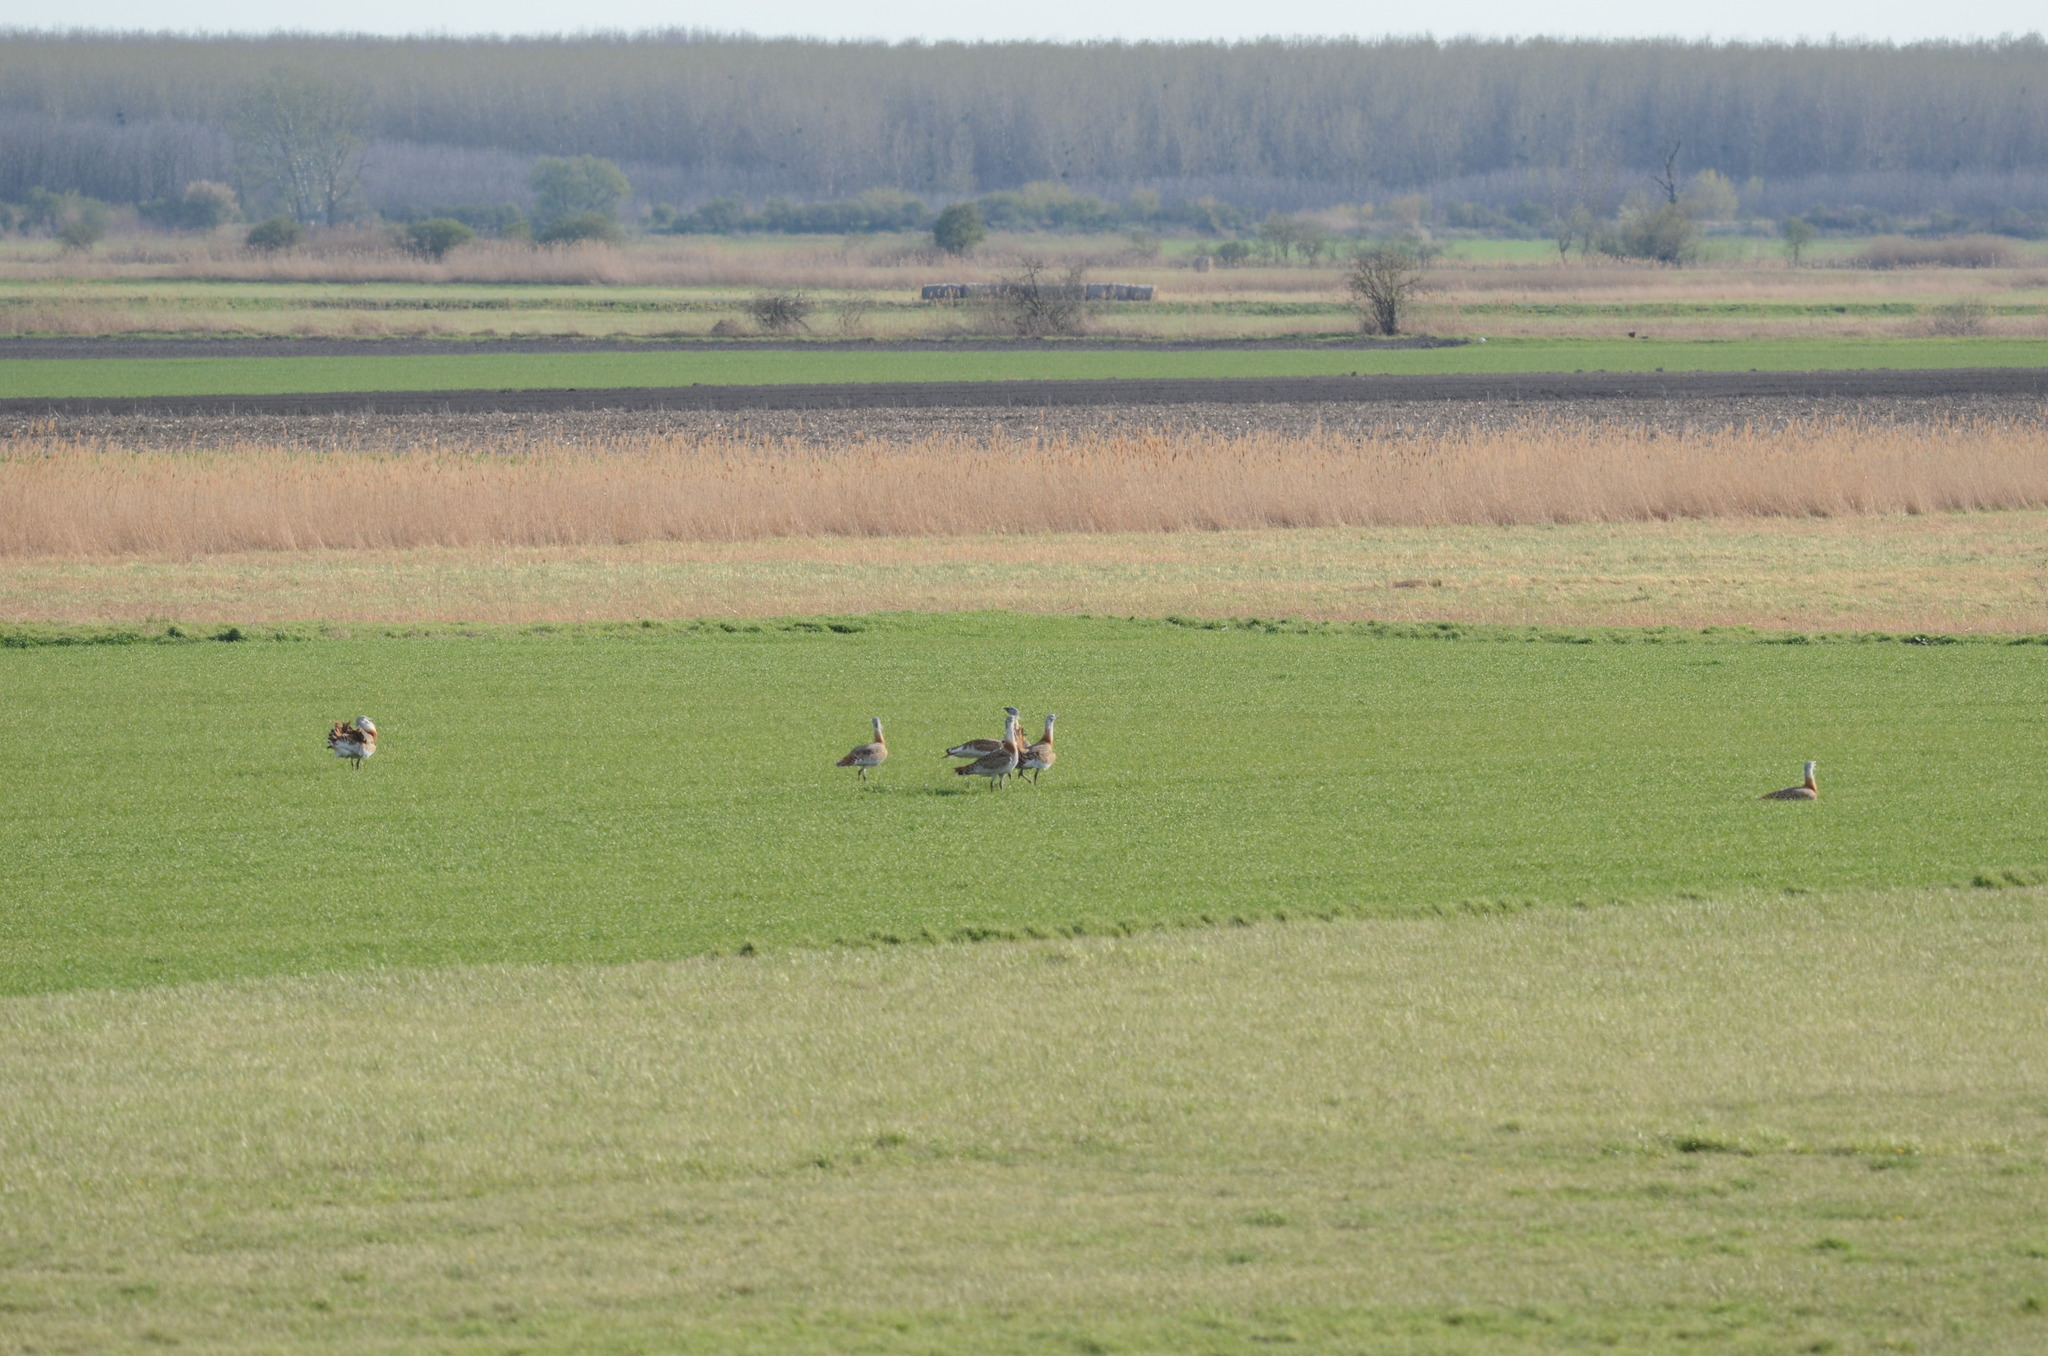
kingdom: Animalia
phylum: Chordata
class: Aves
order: Otidiformes
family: Otididae
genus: Otis
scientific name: Otis tarda
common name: Great bustard
